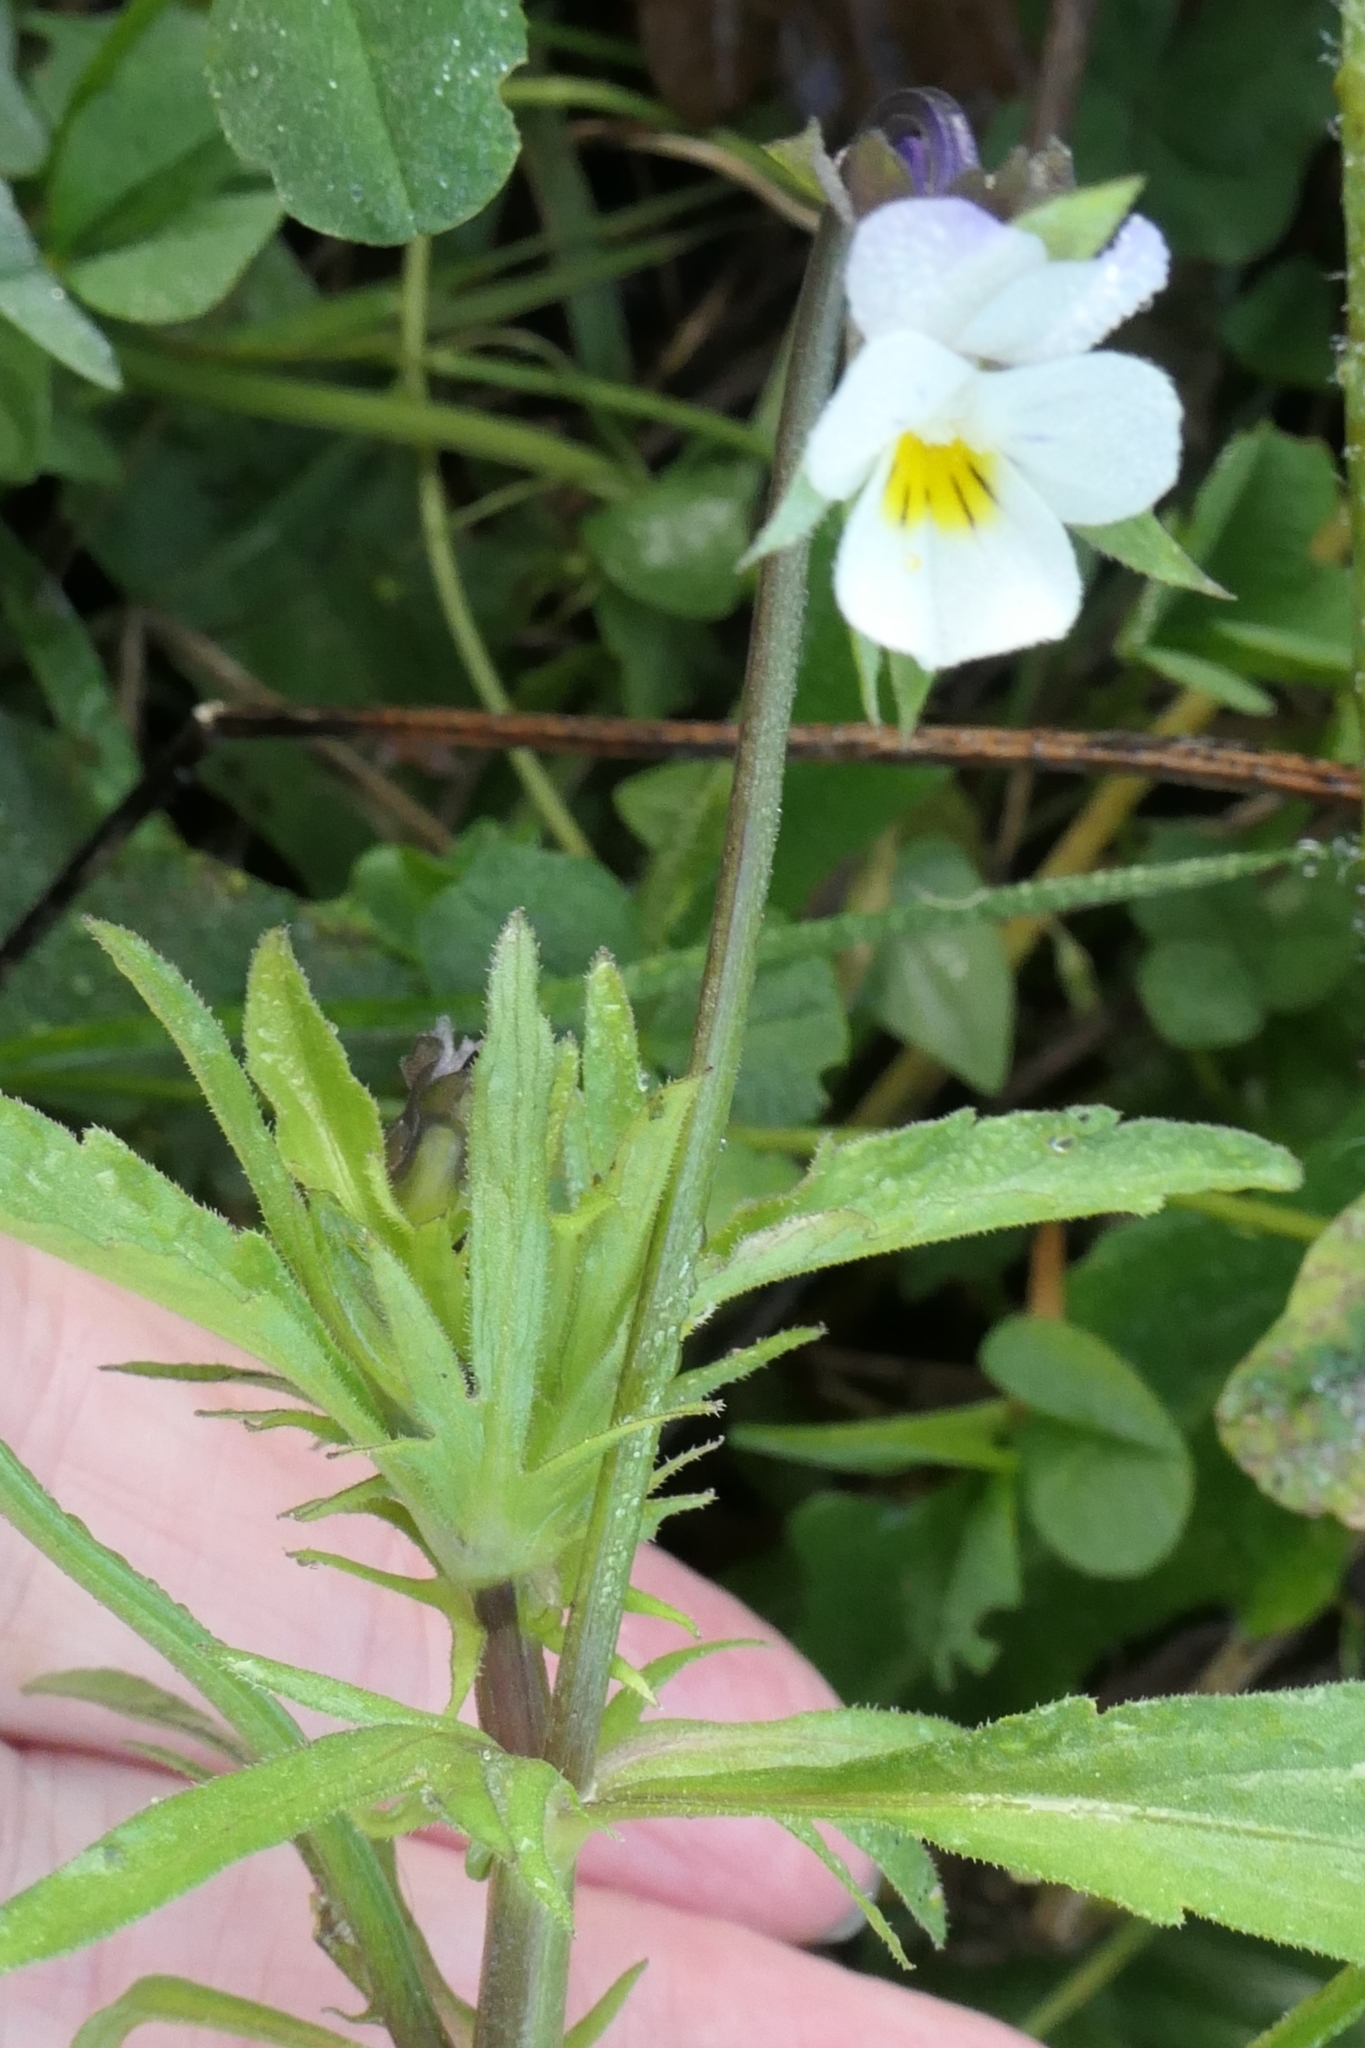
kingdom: Plantae
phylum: Tracheophyta
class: Magnoliopsida
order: Malpighiales
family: Violaceae
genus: Viola
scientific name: Viola arvensis
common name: Field pansy
